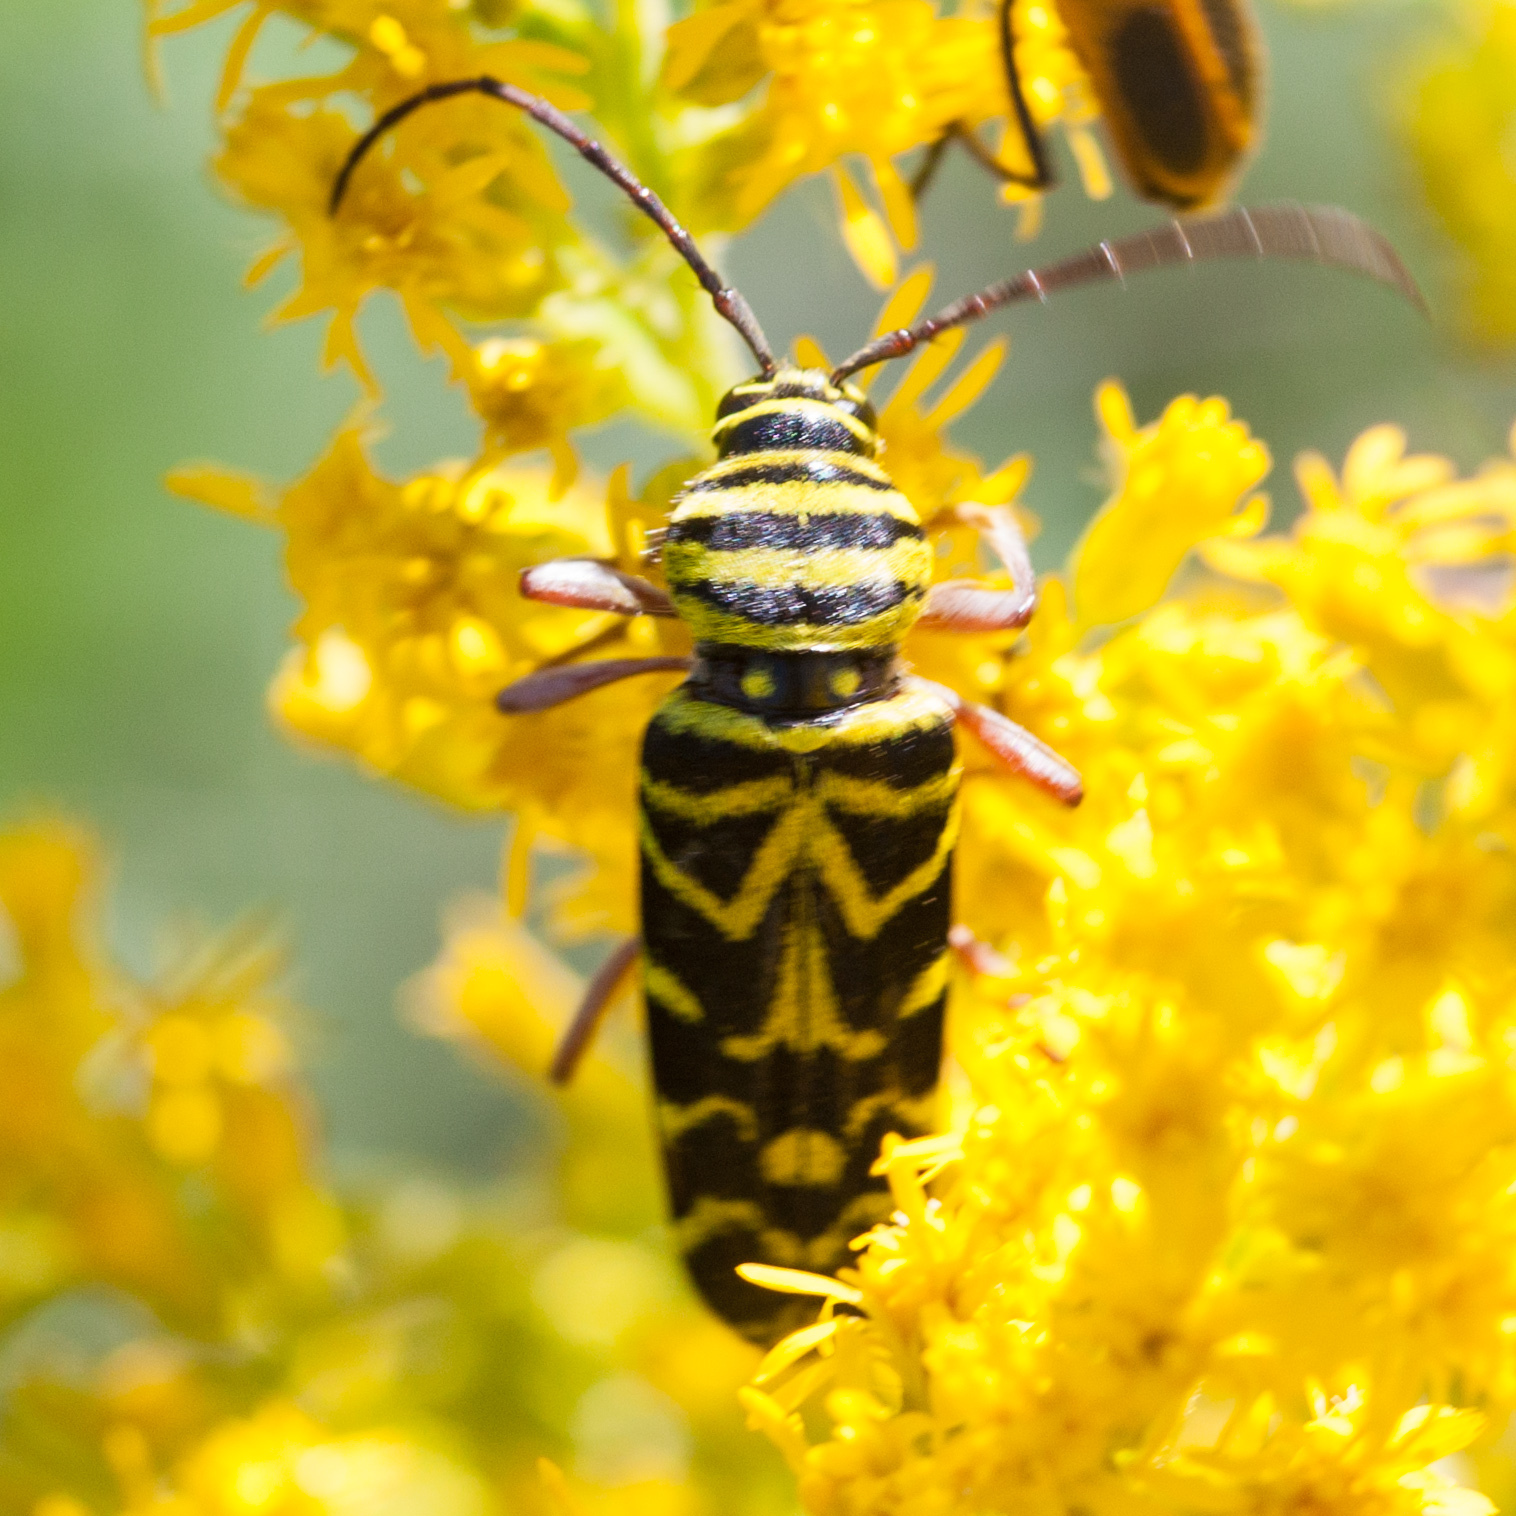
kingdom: Animalia
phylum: Arthropoda
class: Insecta
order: Coleoptera
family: Cerambycidae
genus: Megacyllene
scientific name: Megacyllene robiniae
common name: Locust borer
